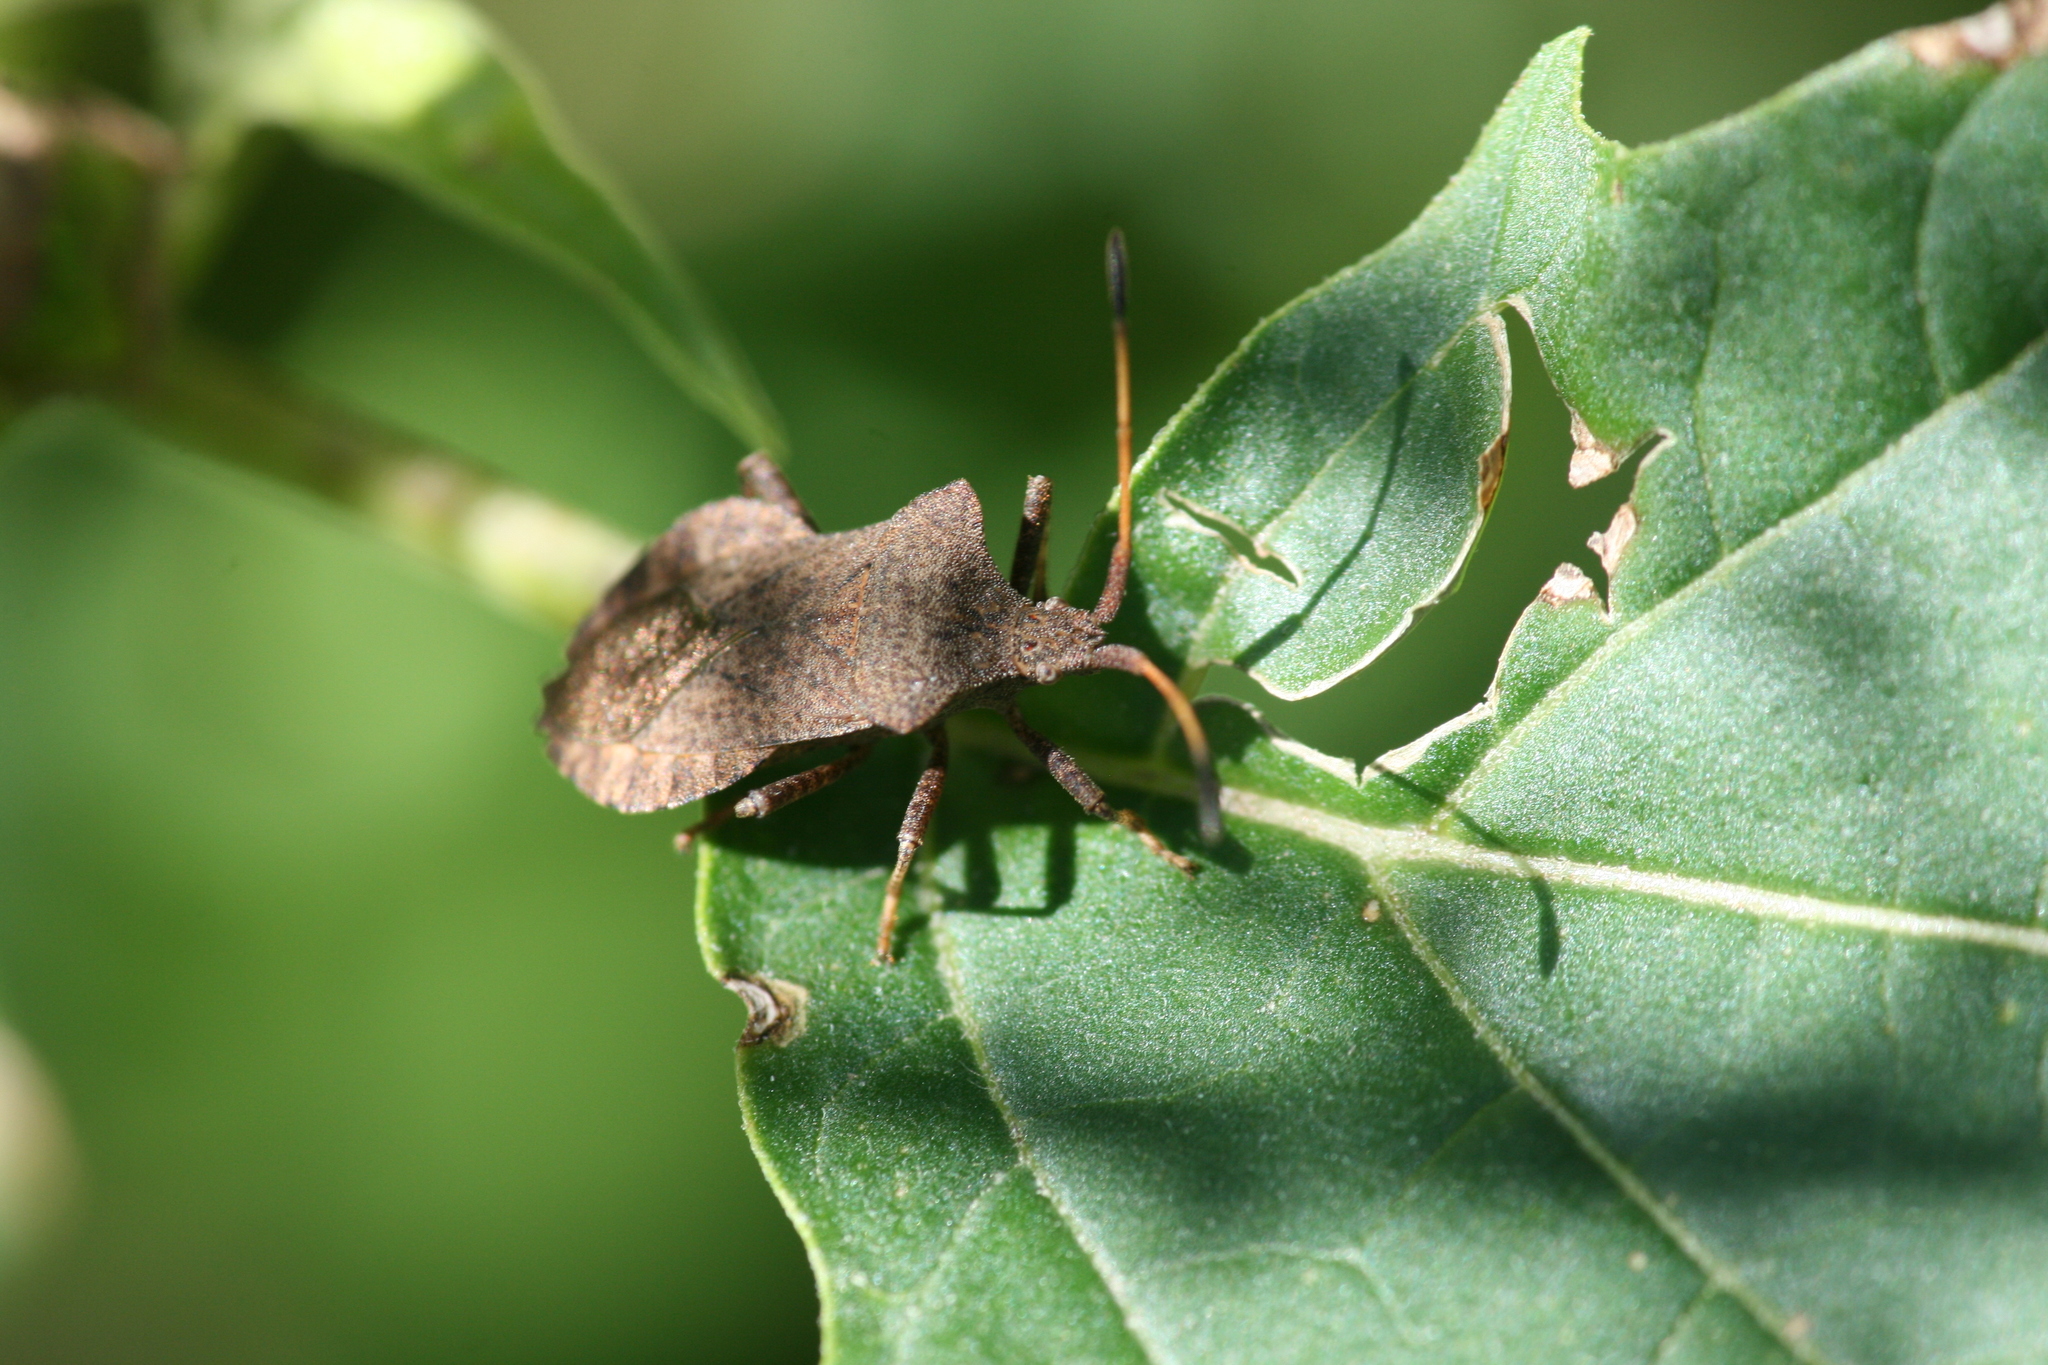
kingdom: Animalia
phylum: Arthropoda
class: Insecta
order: Hemiptera
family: Coreidae
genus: Coreus
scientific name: Coreus marginatus
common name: Dock bug
